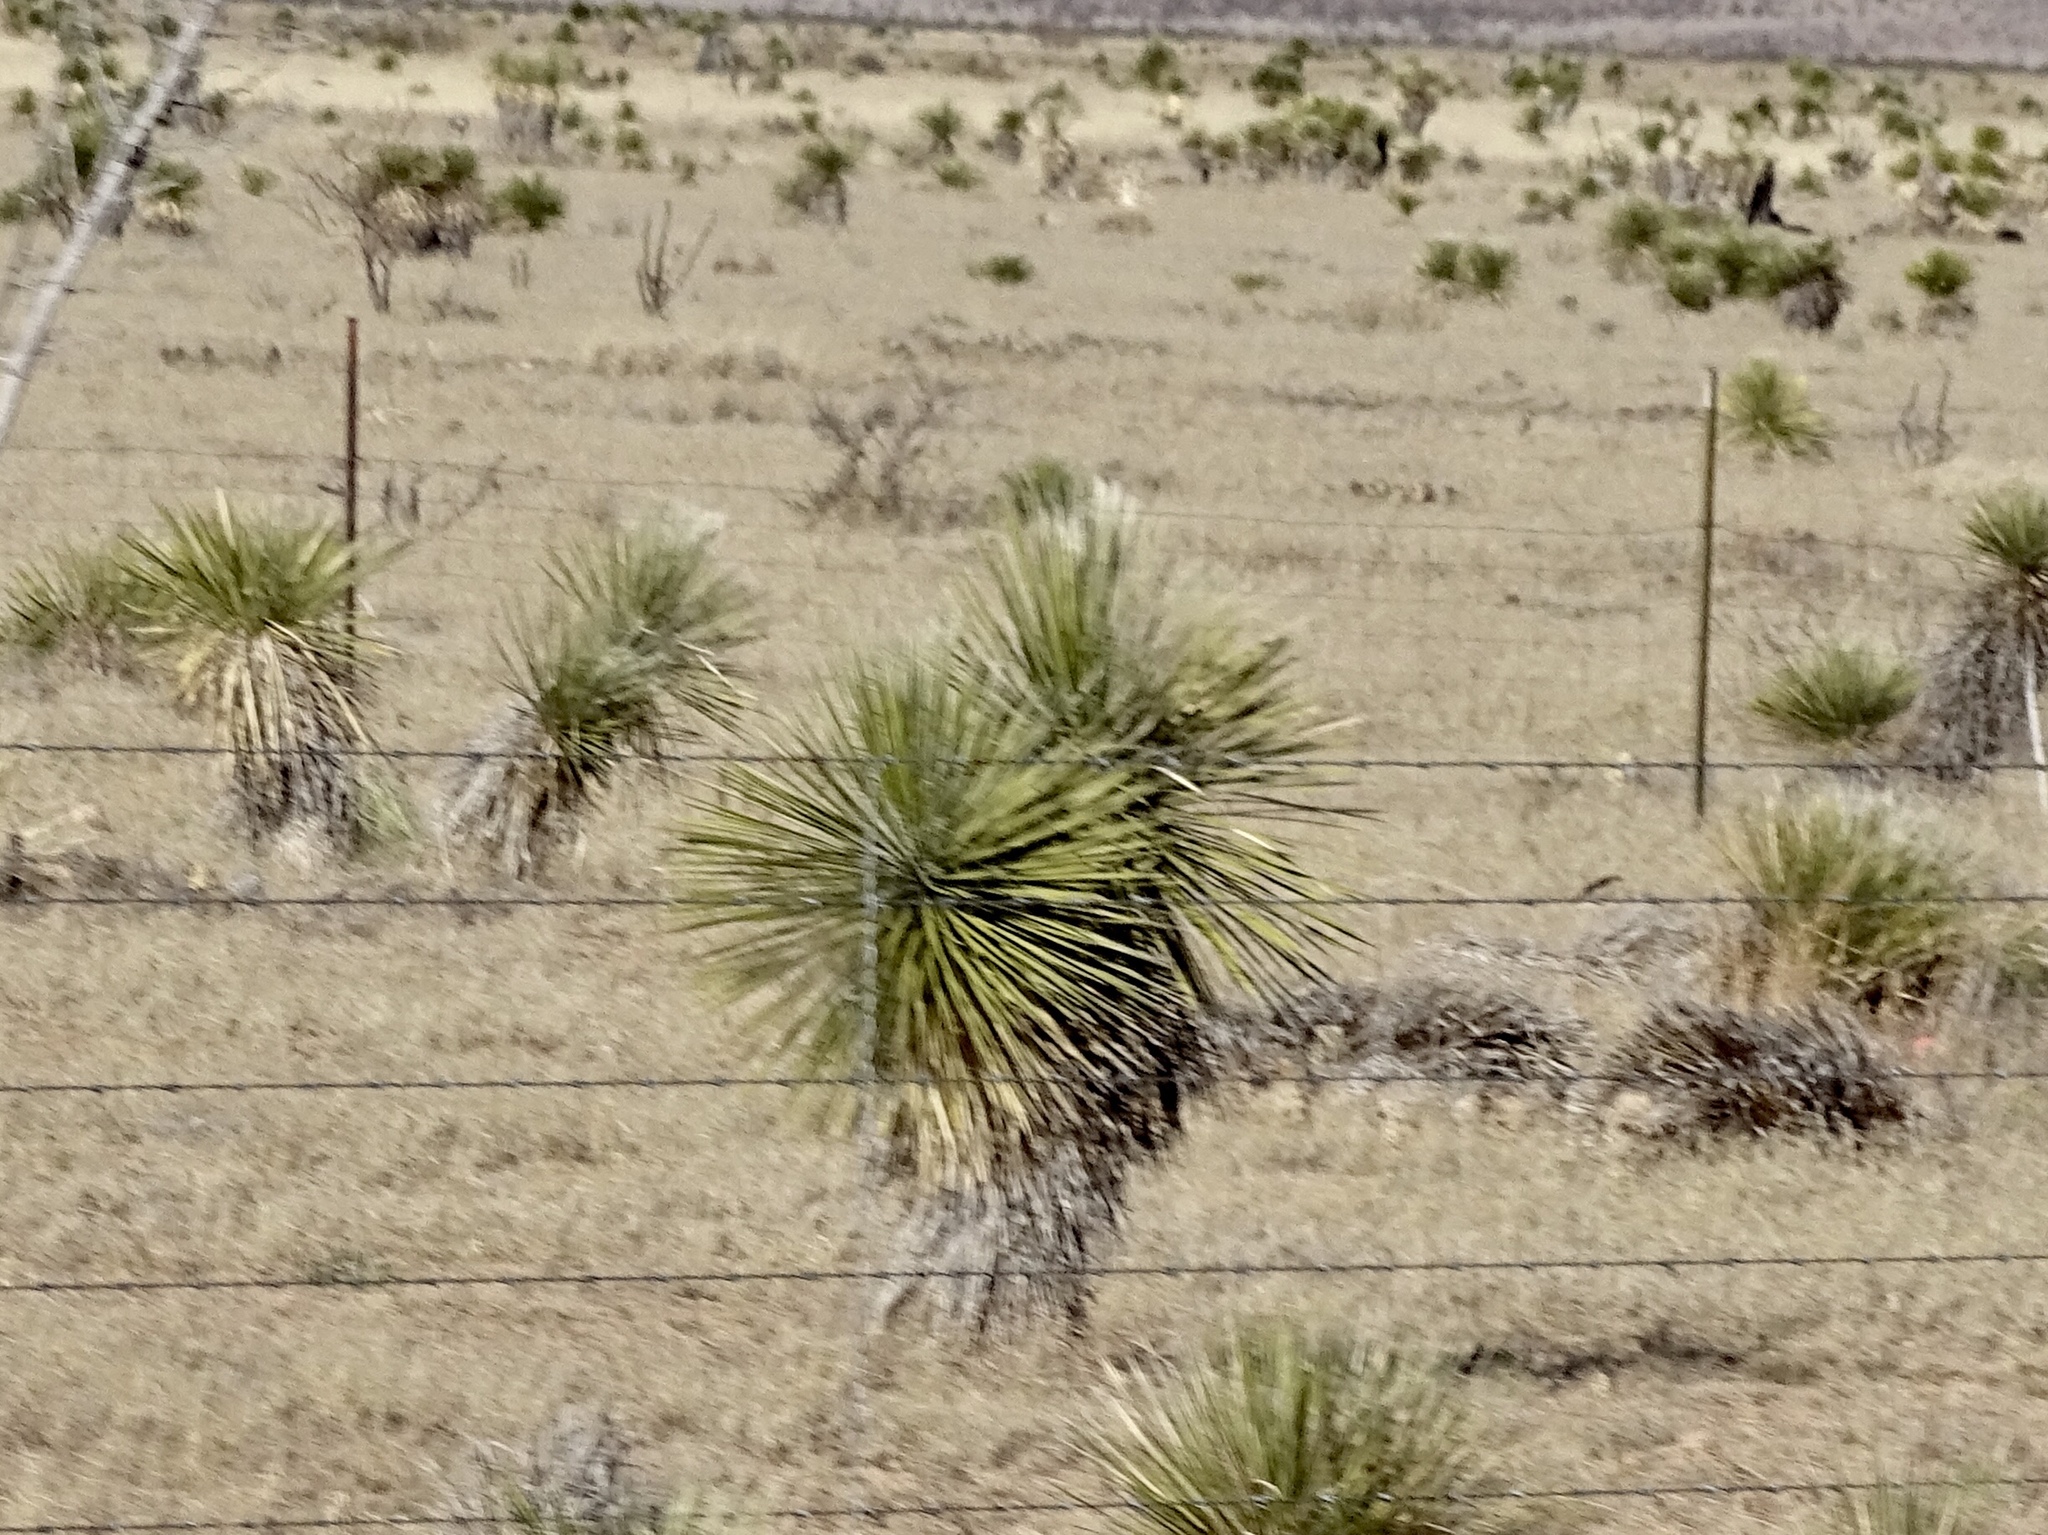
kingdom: Plantae
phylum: Tracheophyta
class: Liliopsida
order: Asparagales
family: Asparagaceae
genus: Yucca
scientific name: Yucca elata
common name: Palmella
